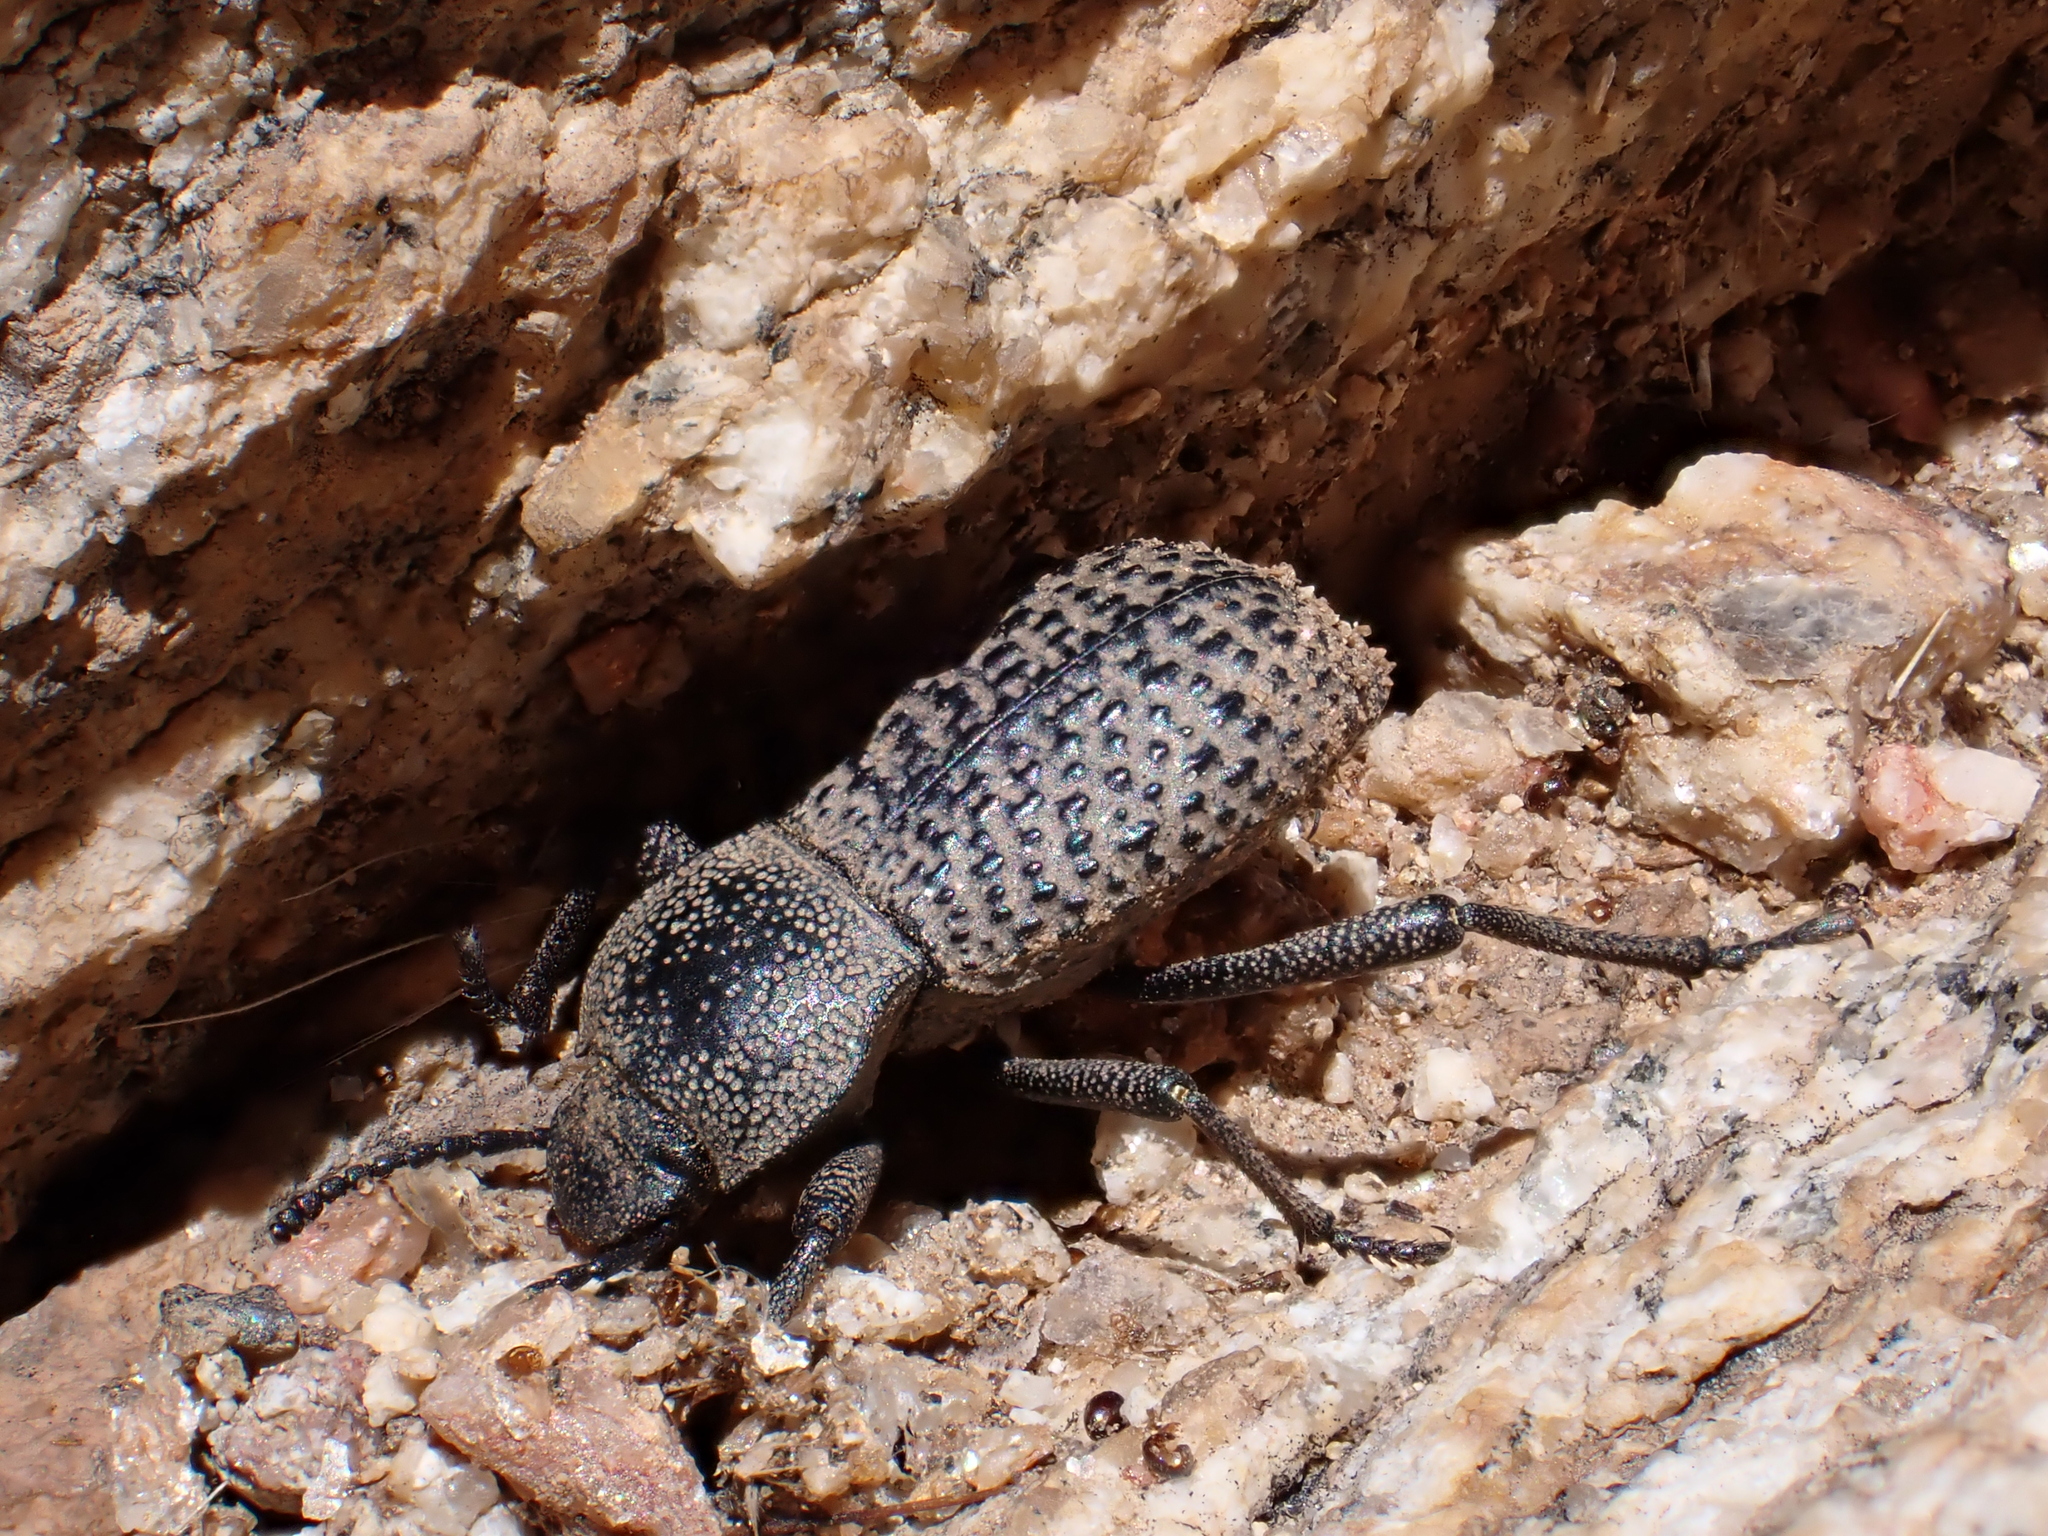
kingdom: Animalia
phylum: Arthropoda
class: Insecta
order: Coleoptera
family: Tenebrionidae
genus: Cryptoglossa
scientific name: Cryptoglossa variolosa
